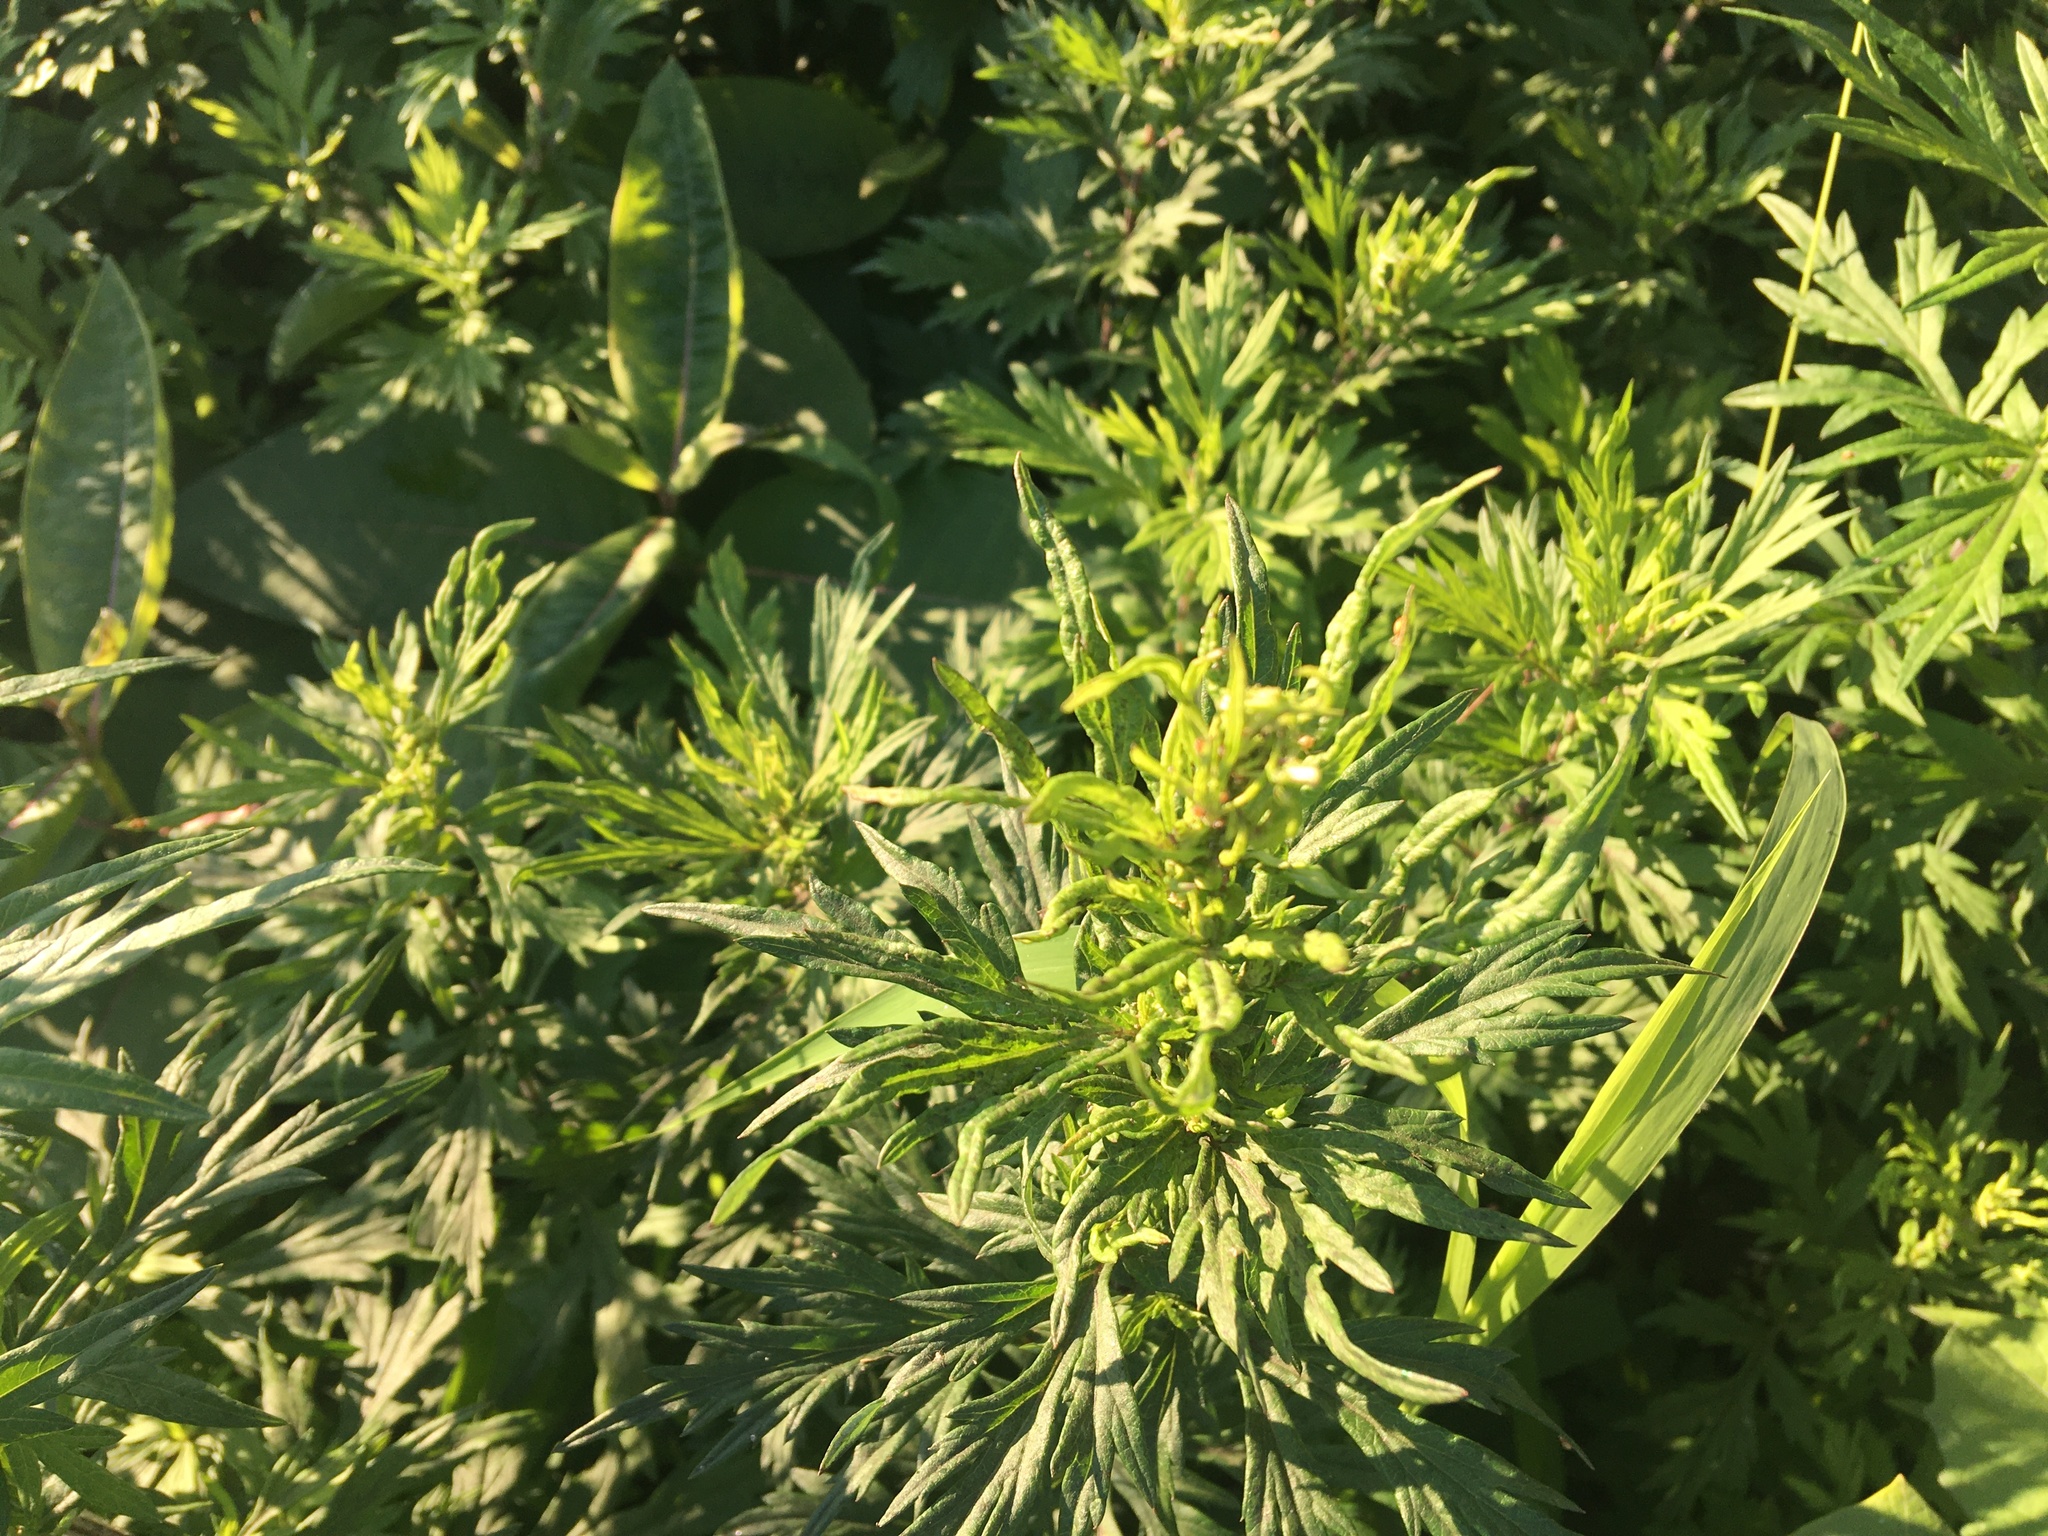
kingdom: Plantae
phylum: Tracheophyta
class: Magnoliopsida
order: Asterales
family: Asteraceae
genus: Artemisia
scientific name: Artemisia vulgaris
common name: Mugwort
